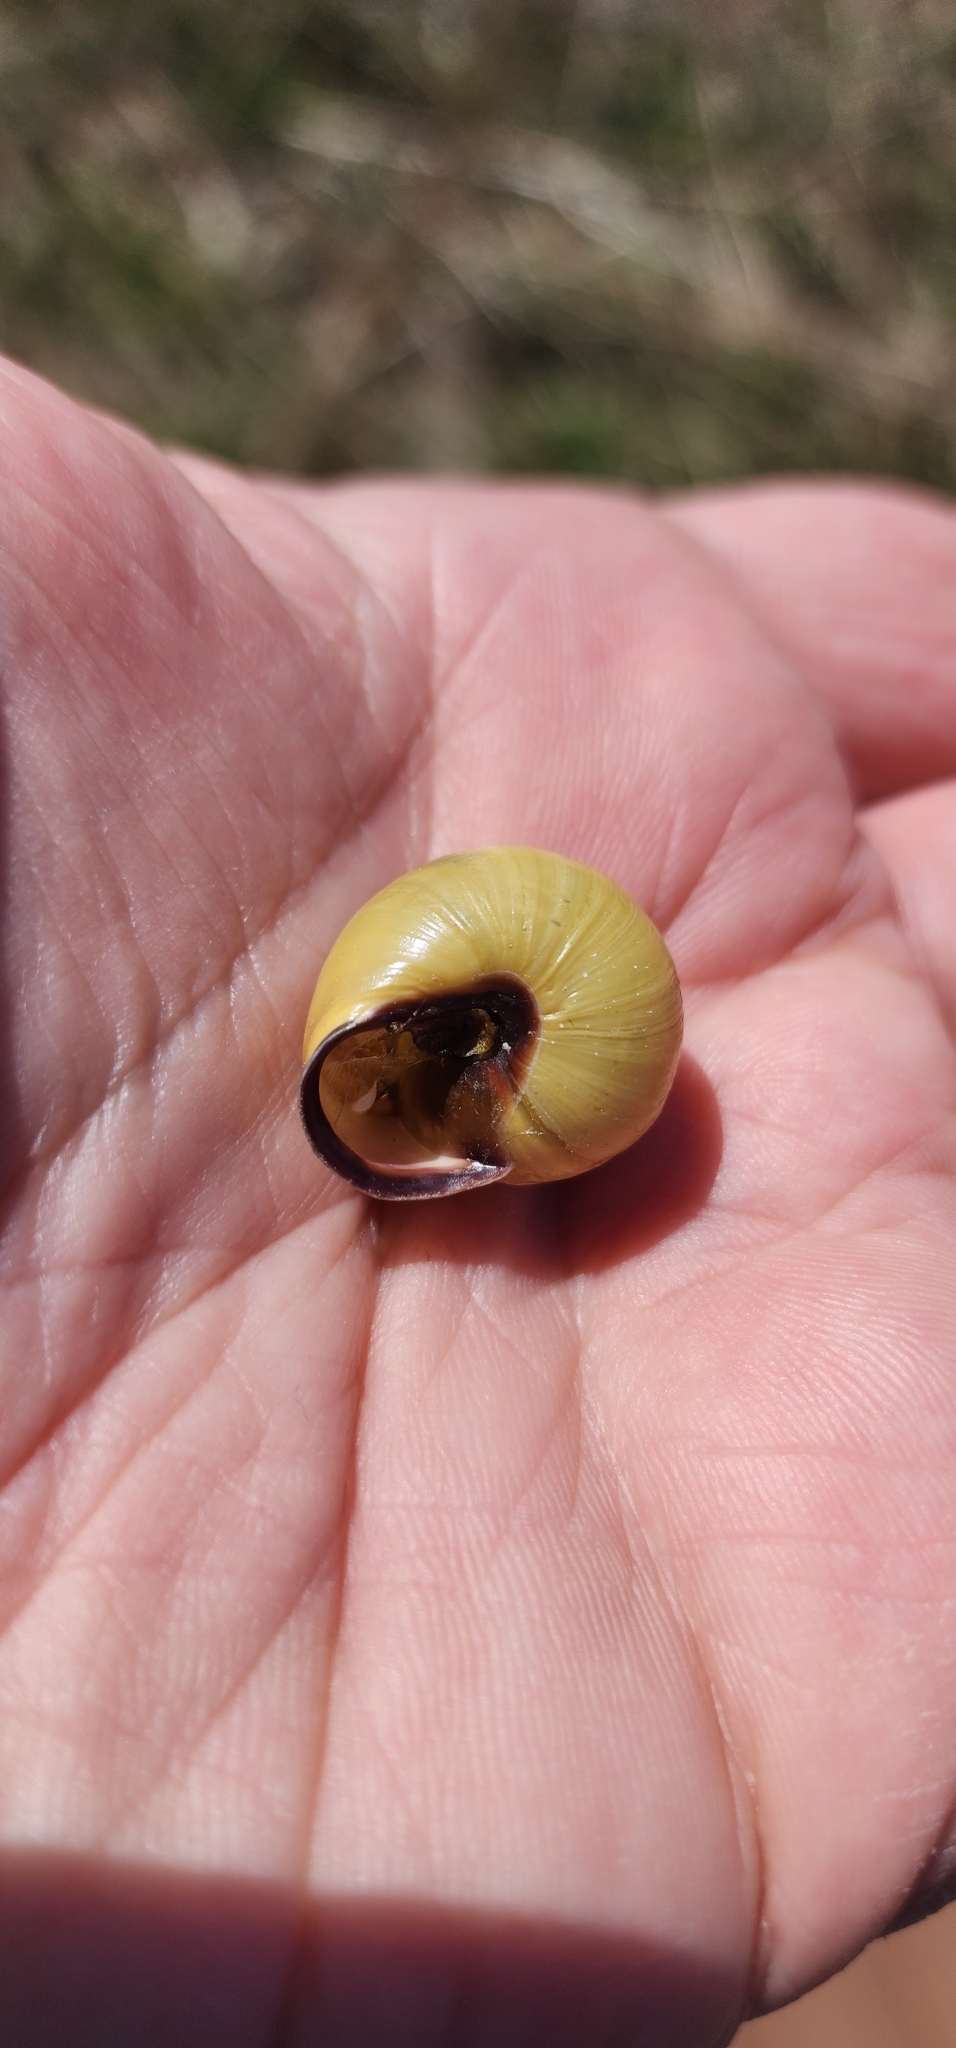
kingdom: Animalia
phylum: Mollusca
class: Gastropoda
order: Stylommatophora
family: Helicidae
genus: Cepaea
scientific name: Cepaea nemoralis
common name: Grovesnail
